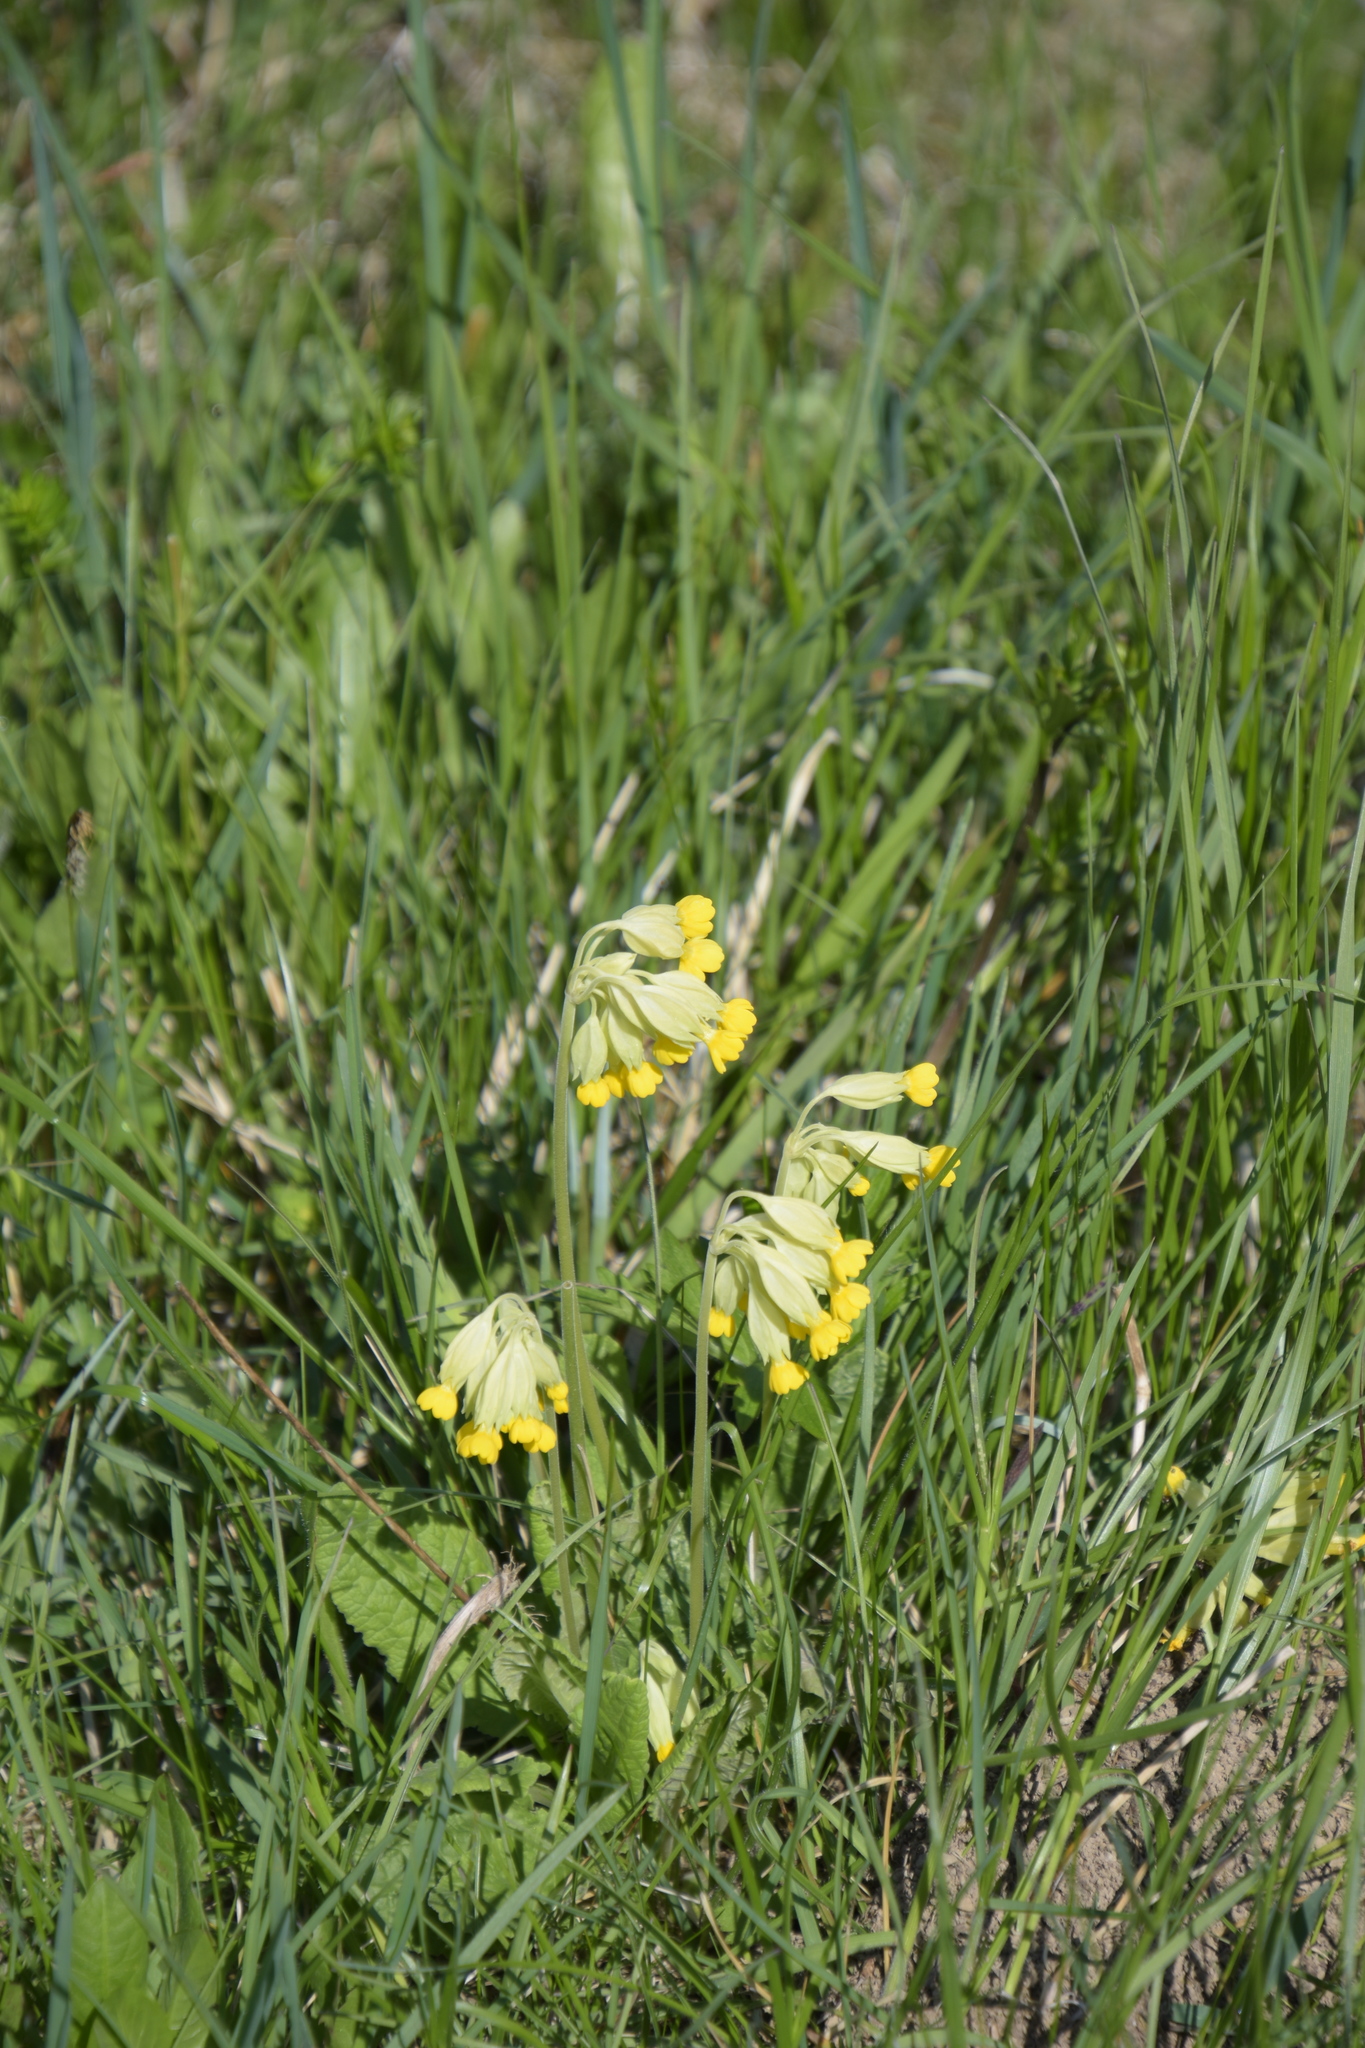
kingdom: Plantae
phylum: Tracheophyta
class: Magnoliopsida
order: Ericales
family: Primulaceae
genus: Primula
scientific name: Primula veris
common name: Cowslip
